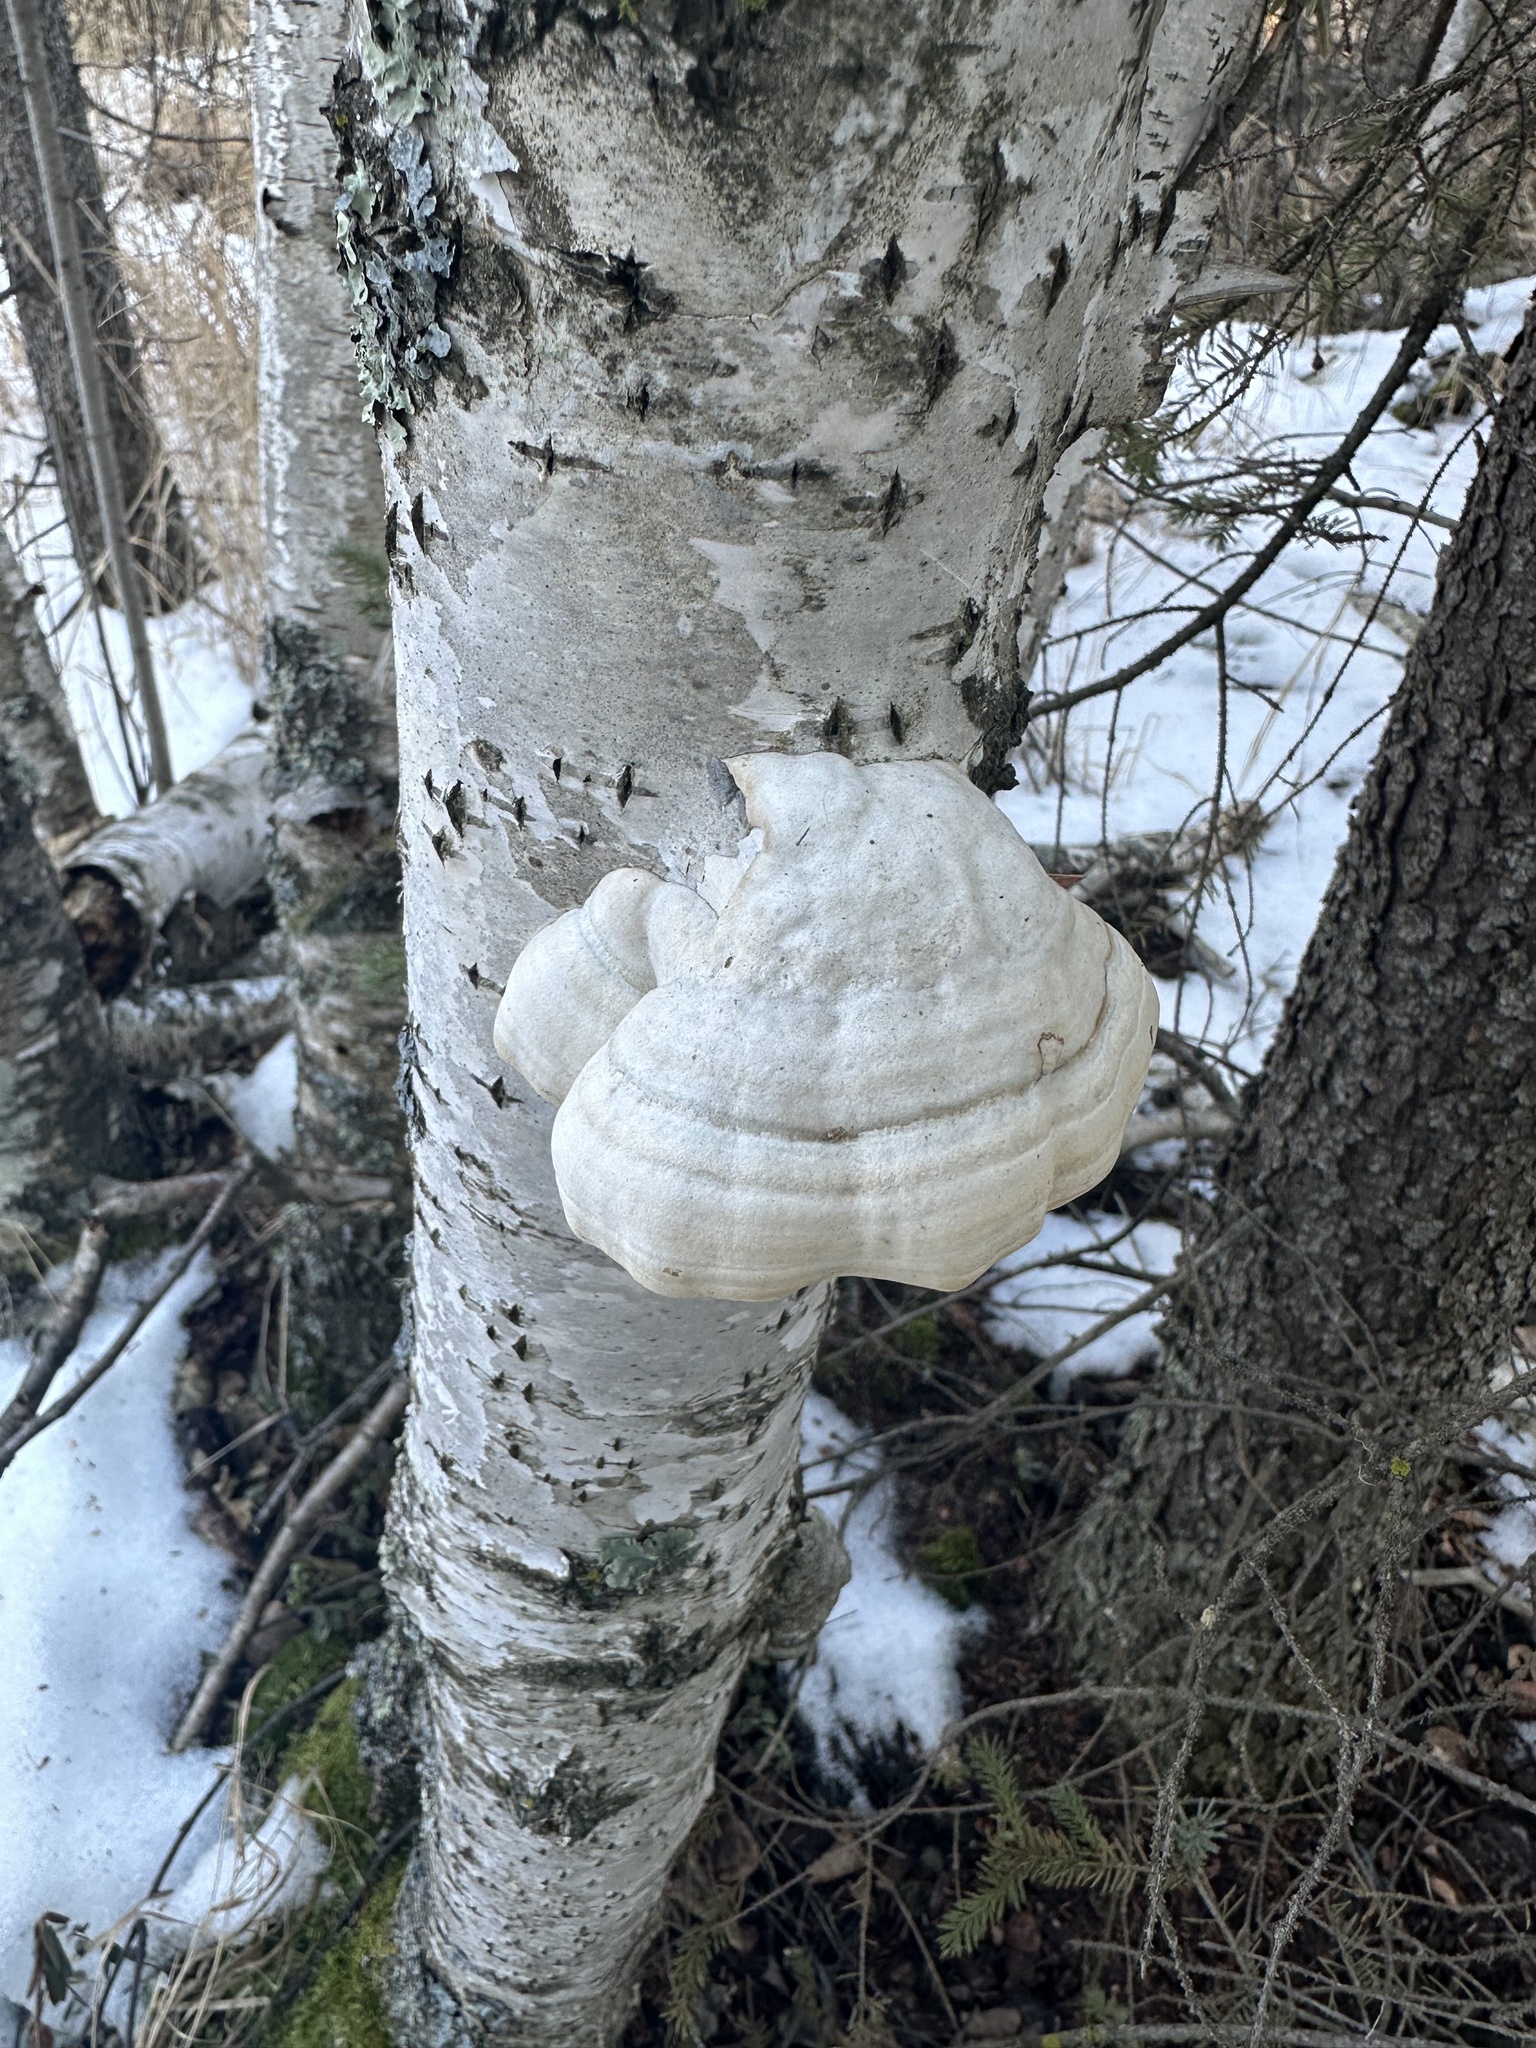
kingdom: Fungi
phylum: Basidiomycota
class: Agaricomycetes
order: Polyporales
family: Polyporaceae
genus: Fomes
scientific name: Fomes fomentarius
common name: Hoof fungus
